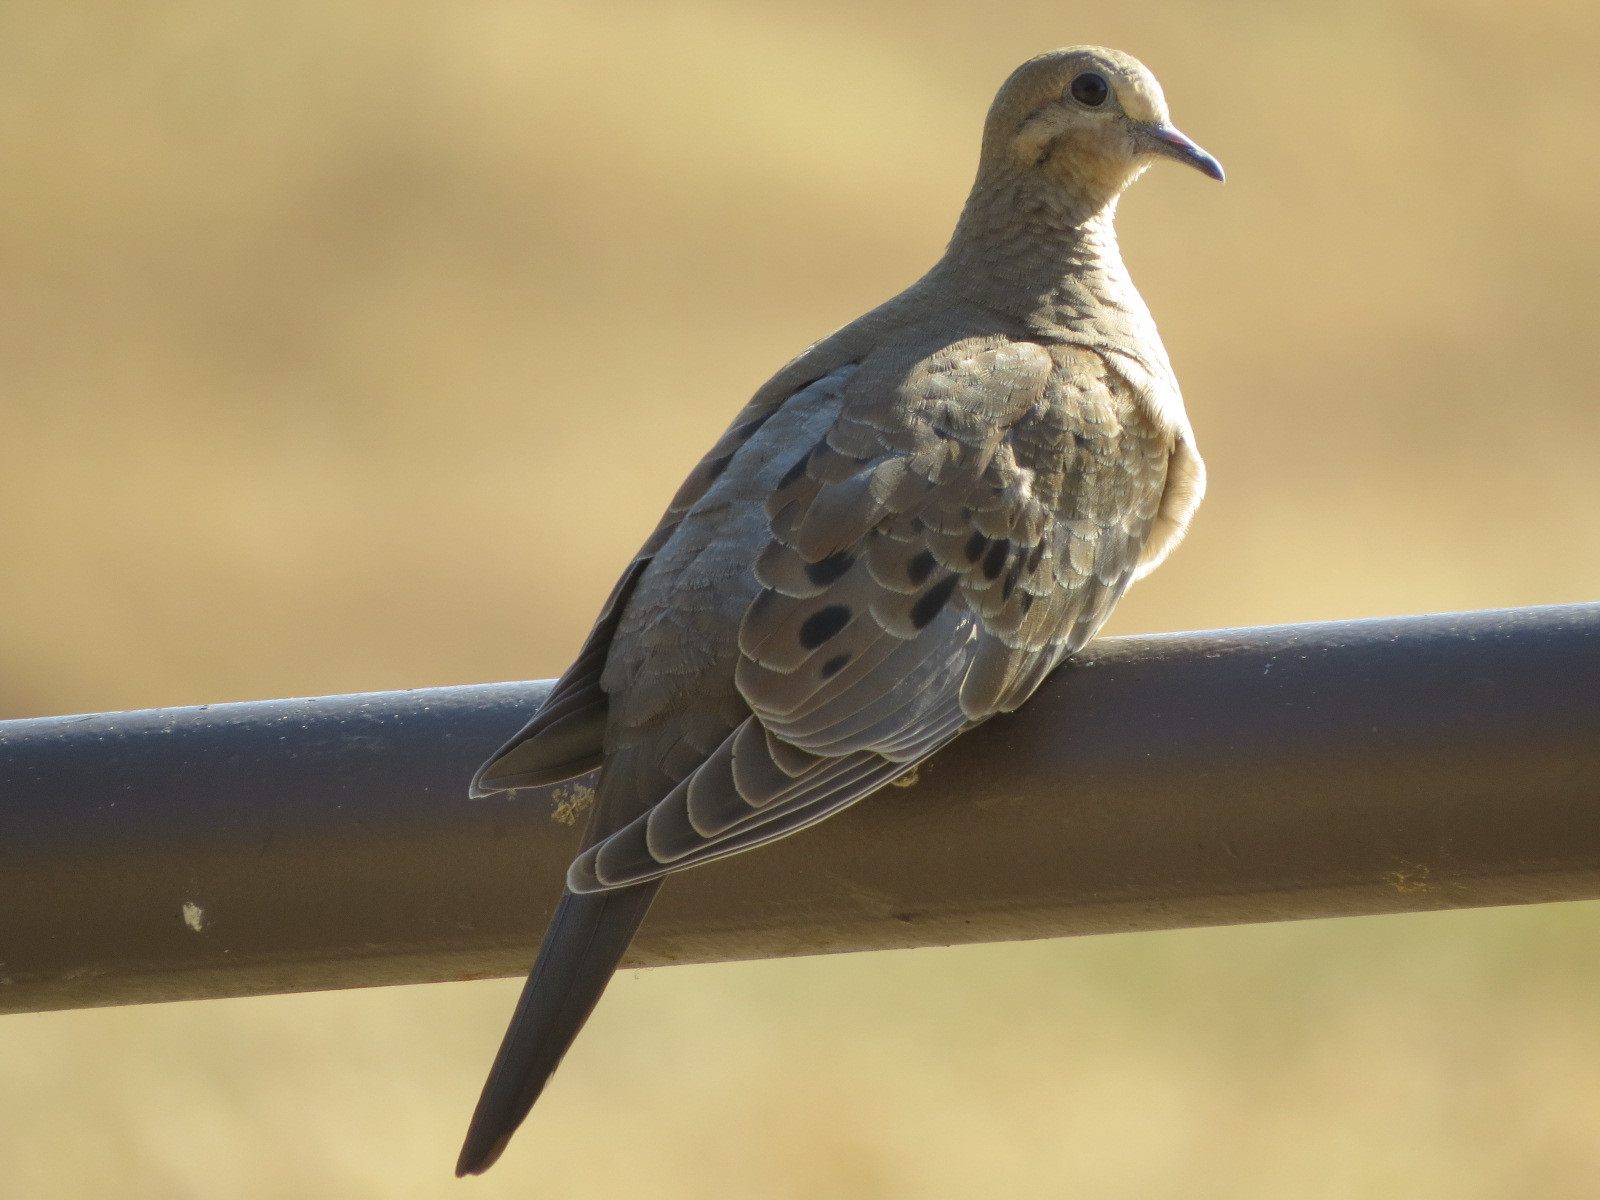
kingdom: Animalia
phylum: Chordata
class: Aves
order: Columbiformes
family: Columbidae
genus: Zenaida
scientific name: Zenaida macroura
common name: Mourning dove
